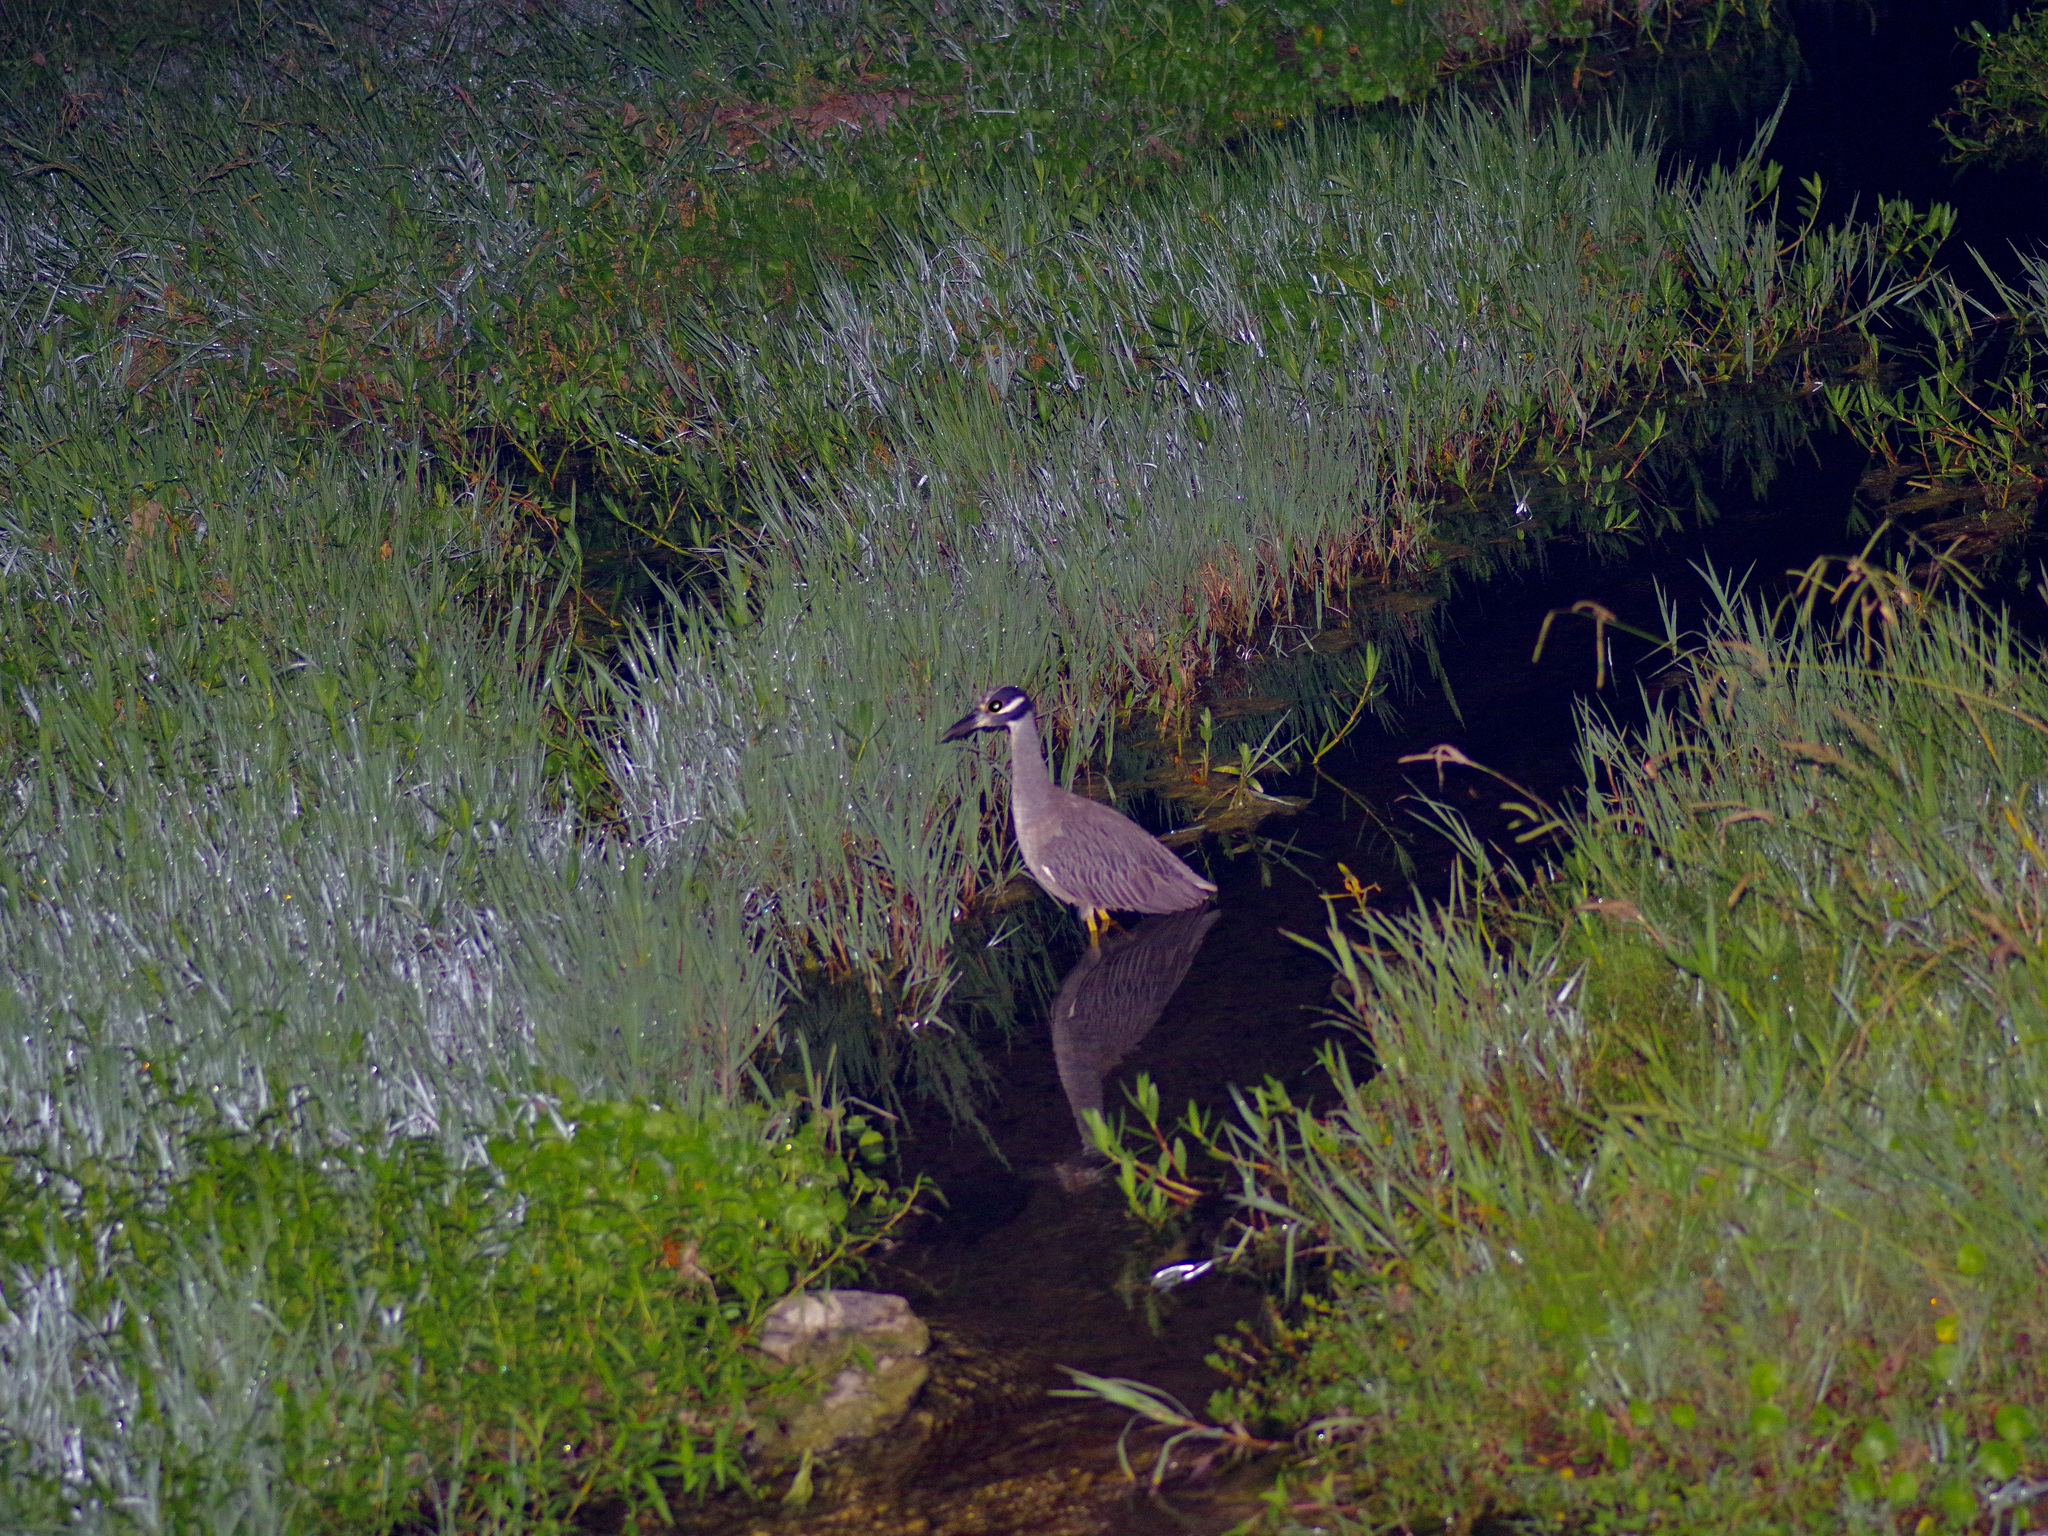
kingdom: Animalia
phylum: Chordata
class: Aves
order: Pelecaniformes
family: Ardeidae
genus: Nyctanassa
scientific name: Nyctanassa violacea
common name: Yellow-crowned night heron
